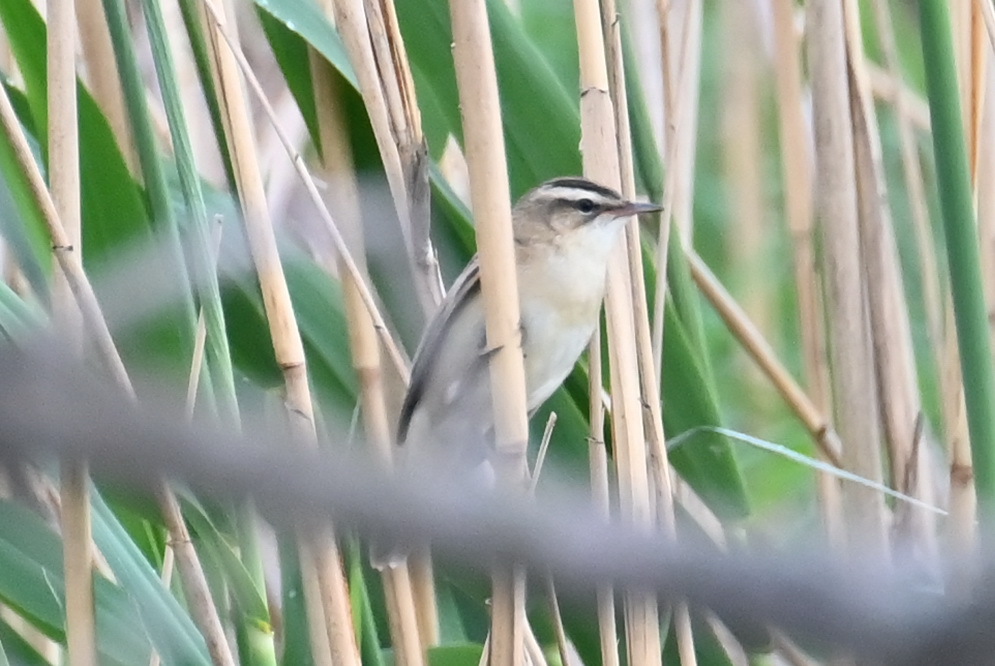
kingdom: Animalia
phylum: Chordata
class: Aves
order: Passeriformes
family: Acrocephalidae
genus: Acrocephalus
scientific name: Acrocephalus schoenobaenus
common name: Sedge warbler
